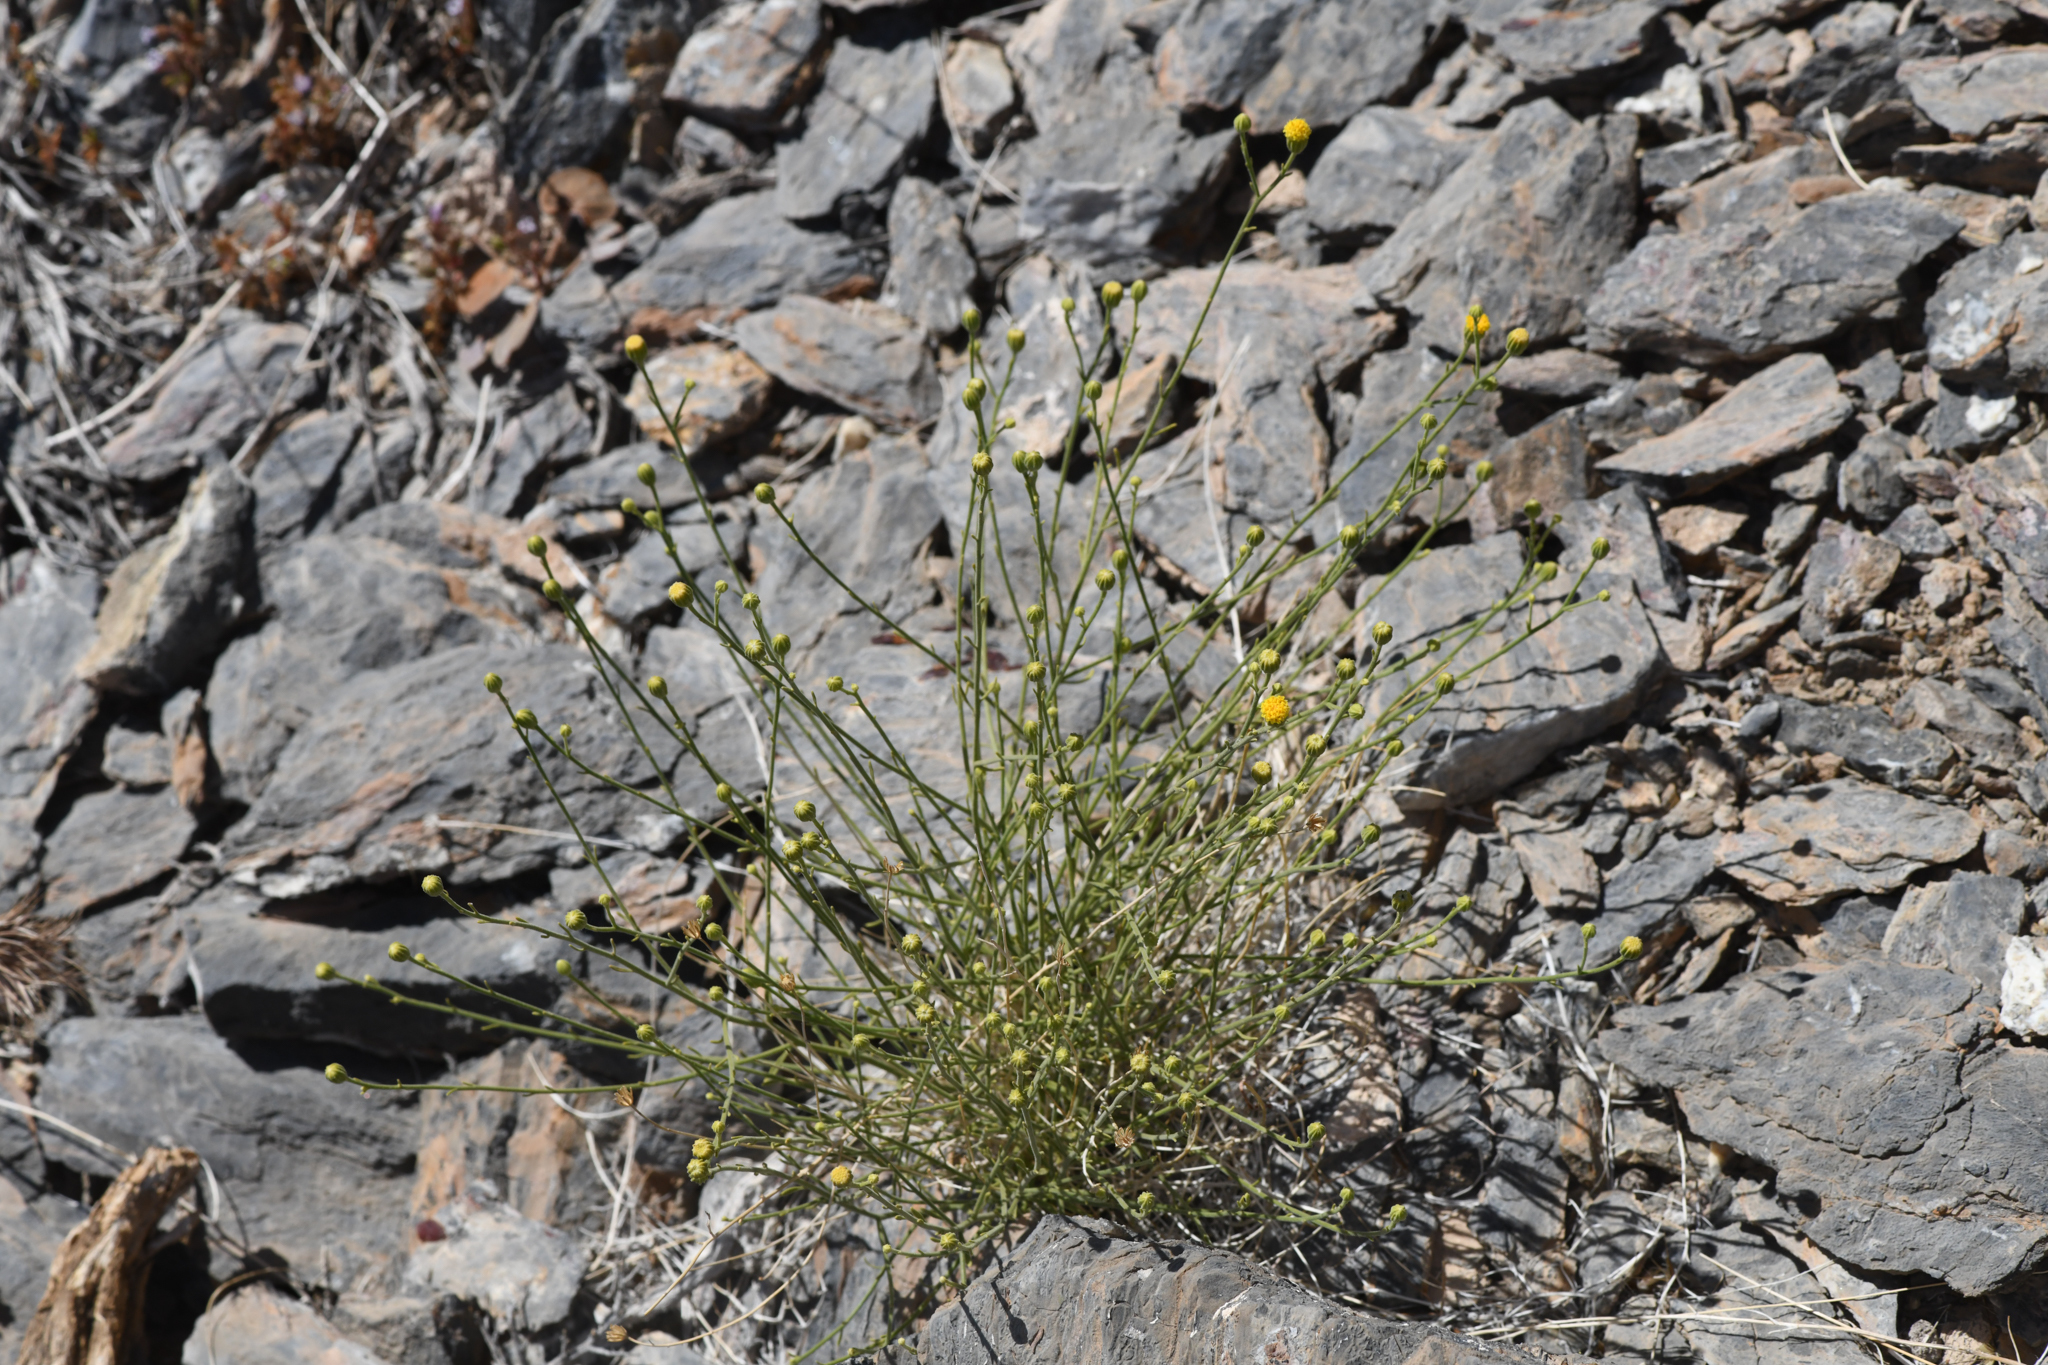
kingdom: Plantae
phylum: Tracheophyta
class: Magnoliopsida
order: Asterales
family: Asteraceae
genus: Laphamia
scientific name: Laphamia megalocephala
